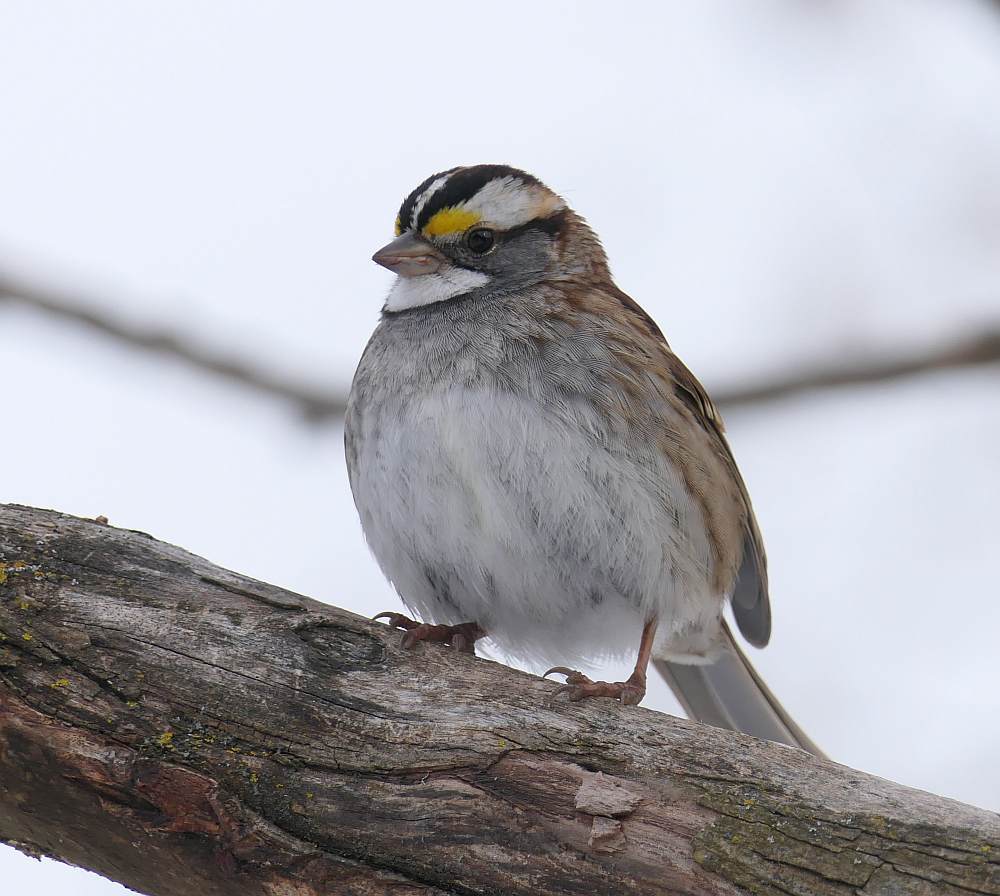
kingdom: Animalia
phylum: Chordata
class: Aves
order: Passeriformes
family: Passerellidae
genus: Zonotrichia
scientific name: Zonotrichia albicollis
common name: White-throated sparrow
